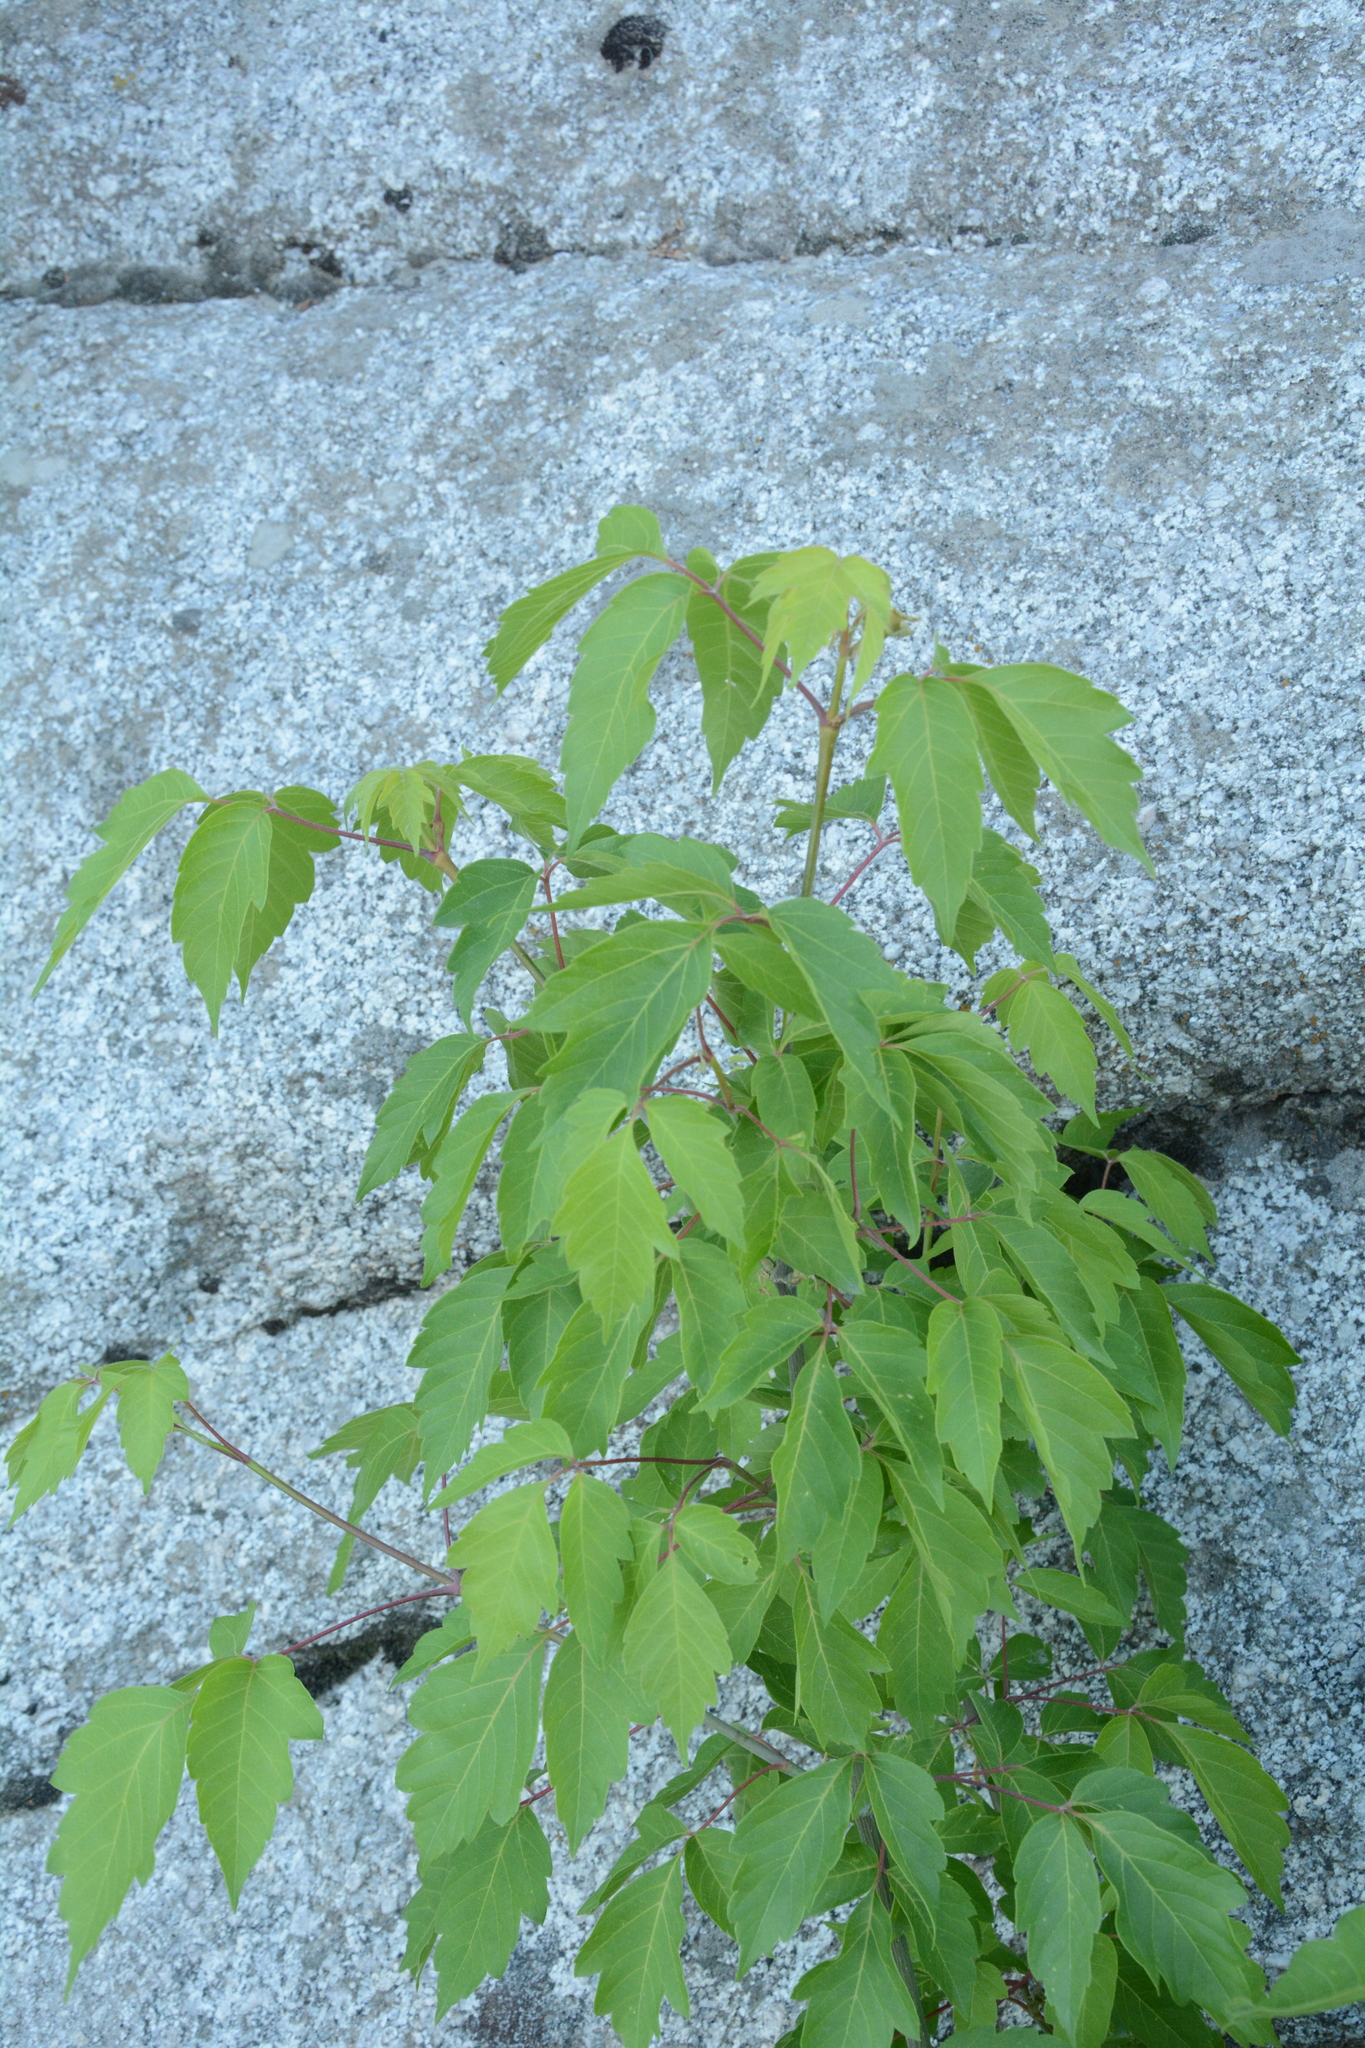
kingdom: Plantae
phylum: Tracheophyta
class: Magnoliopsida
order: Sapindales
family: Sapindaceae
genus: Acer
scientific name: Acer negundo
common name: Ashleaf maple
